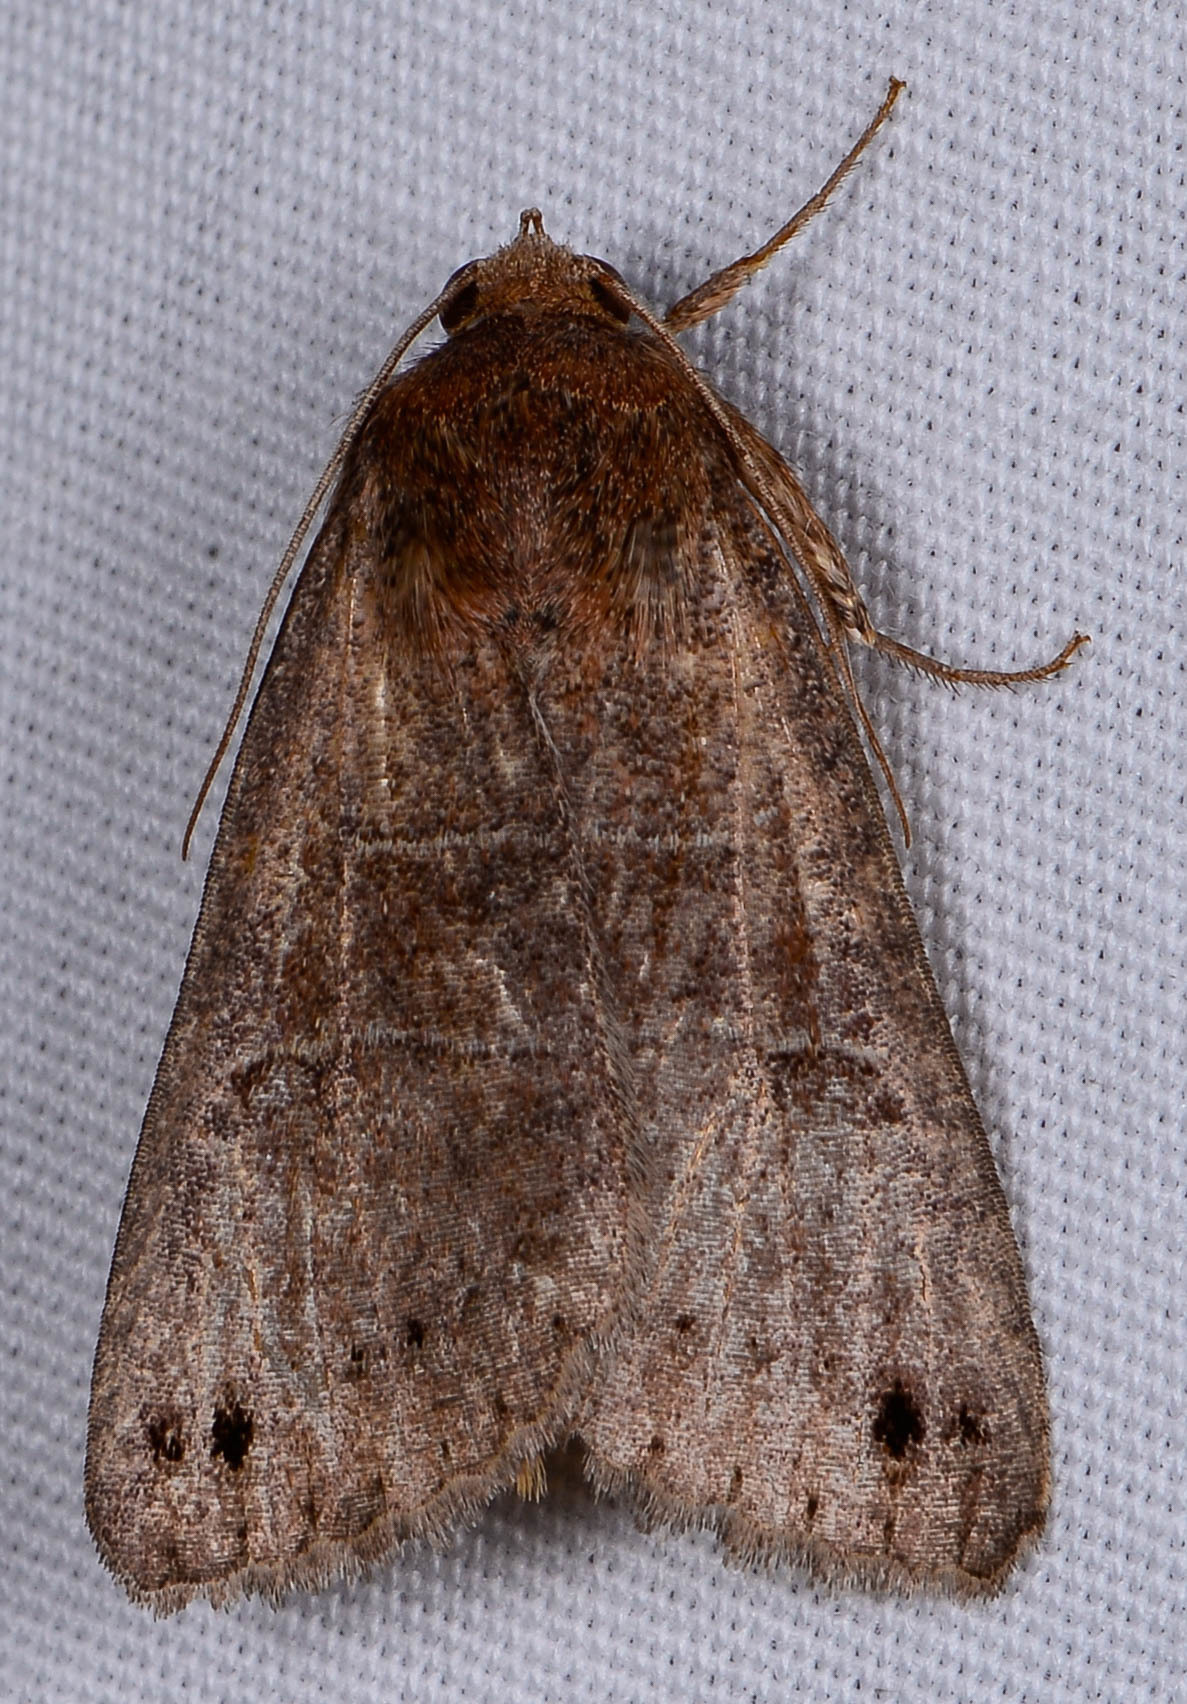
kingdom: Animalia
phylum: Arthropoda
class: Insecta
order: Lepidoptera
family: Erebidae
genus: Cissusa
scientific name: Cissusa spadix
